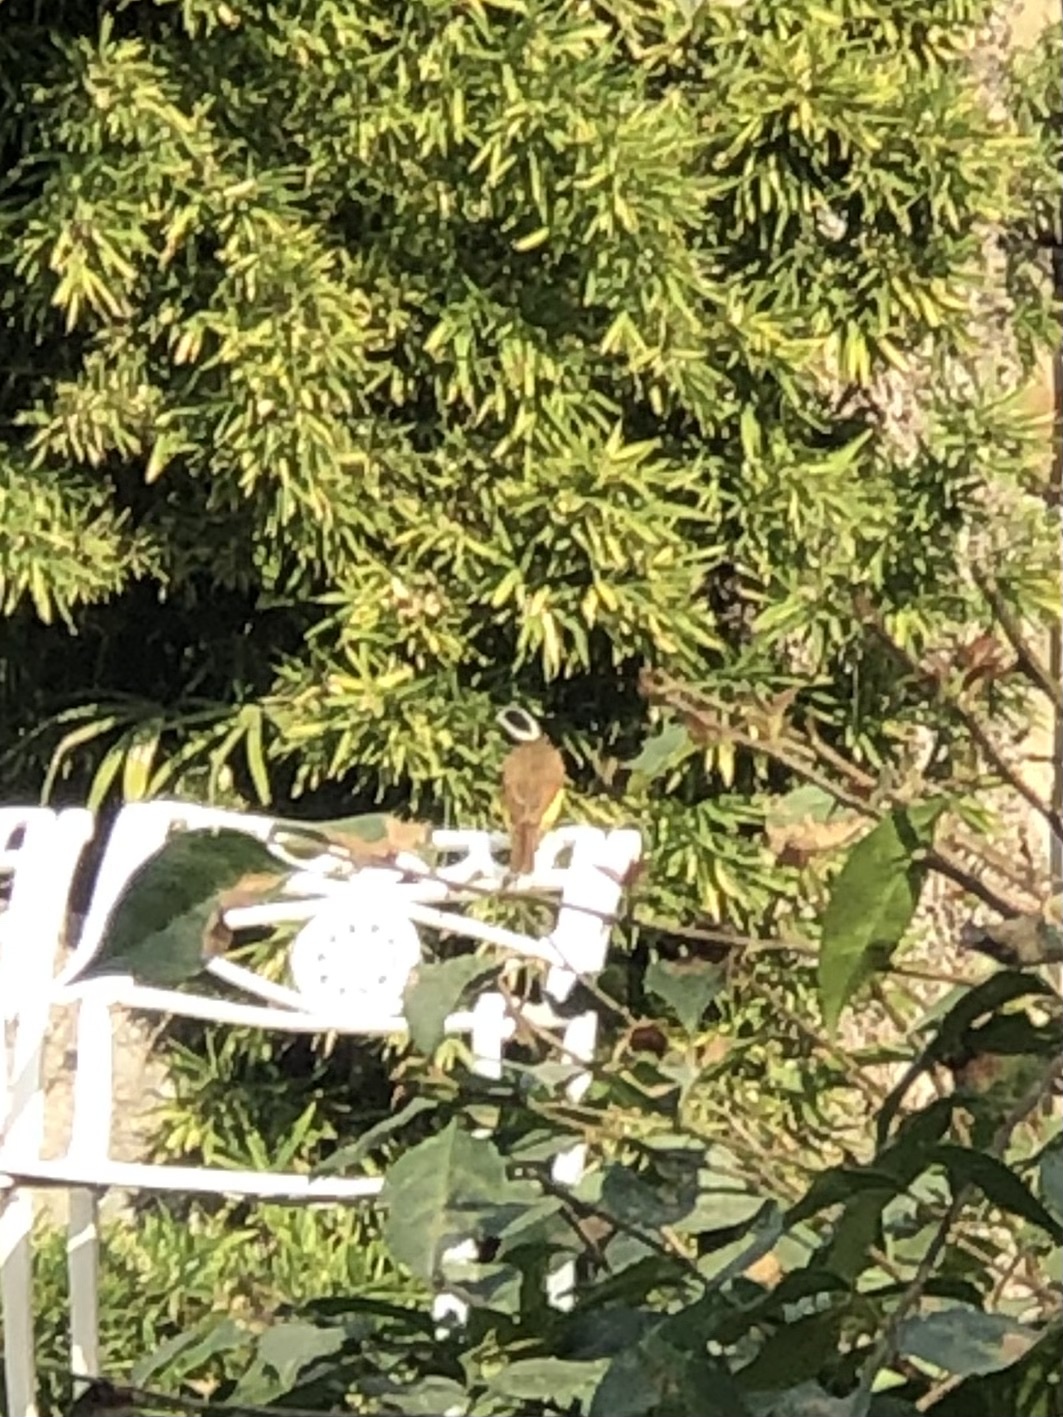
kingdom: Animalia
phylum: Chordata
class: Aves
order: Passeriformes
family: Tyrannidae
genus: Pitangus
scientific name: Pitangus sulphuratus
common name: Great kiskadee
